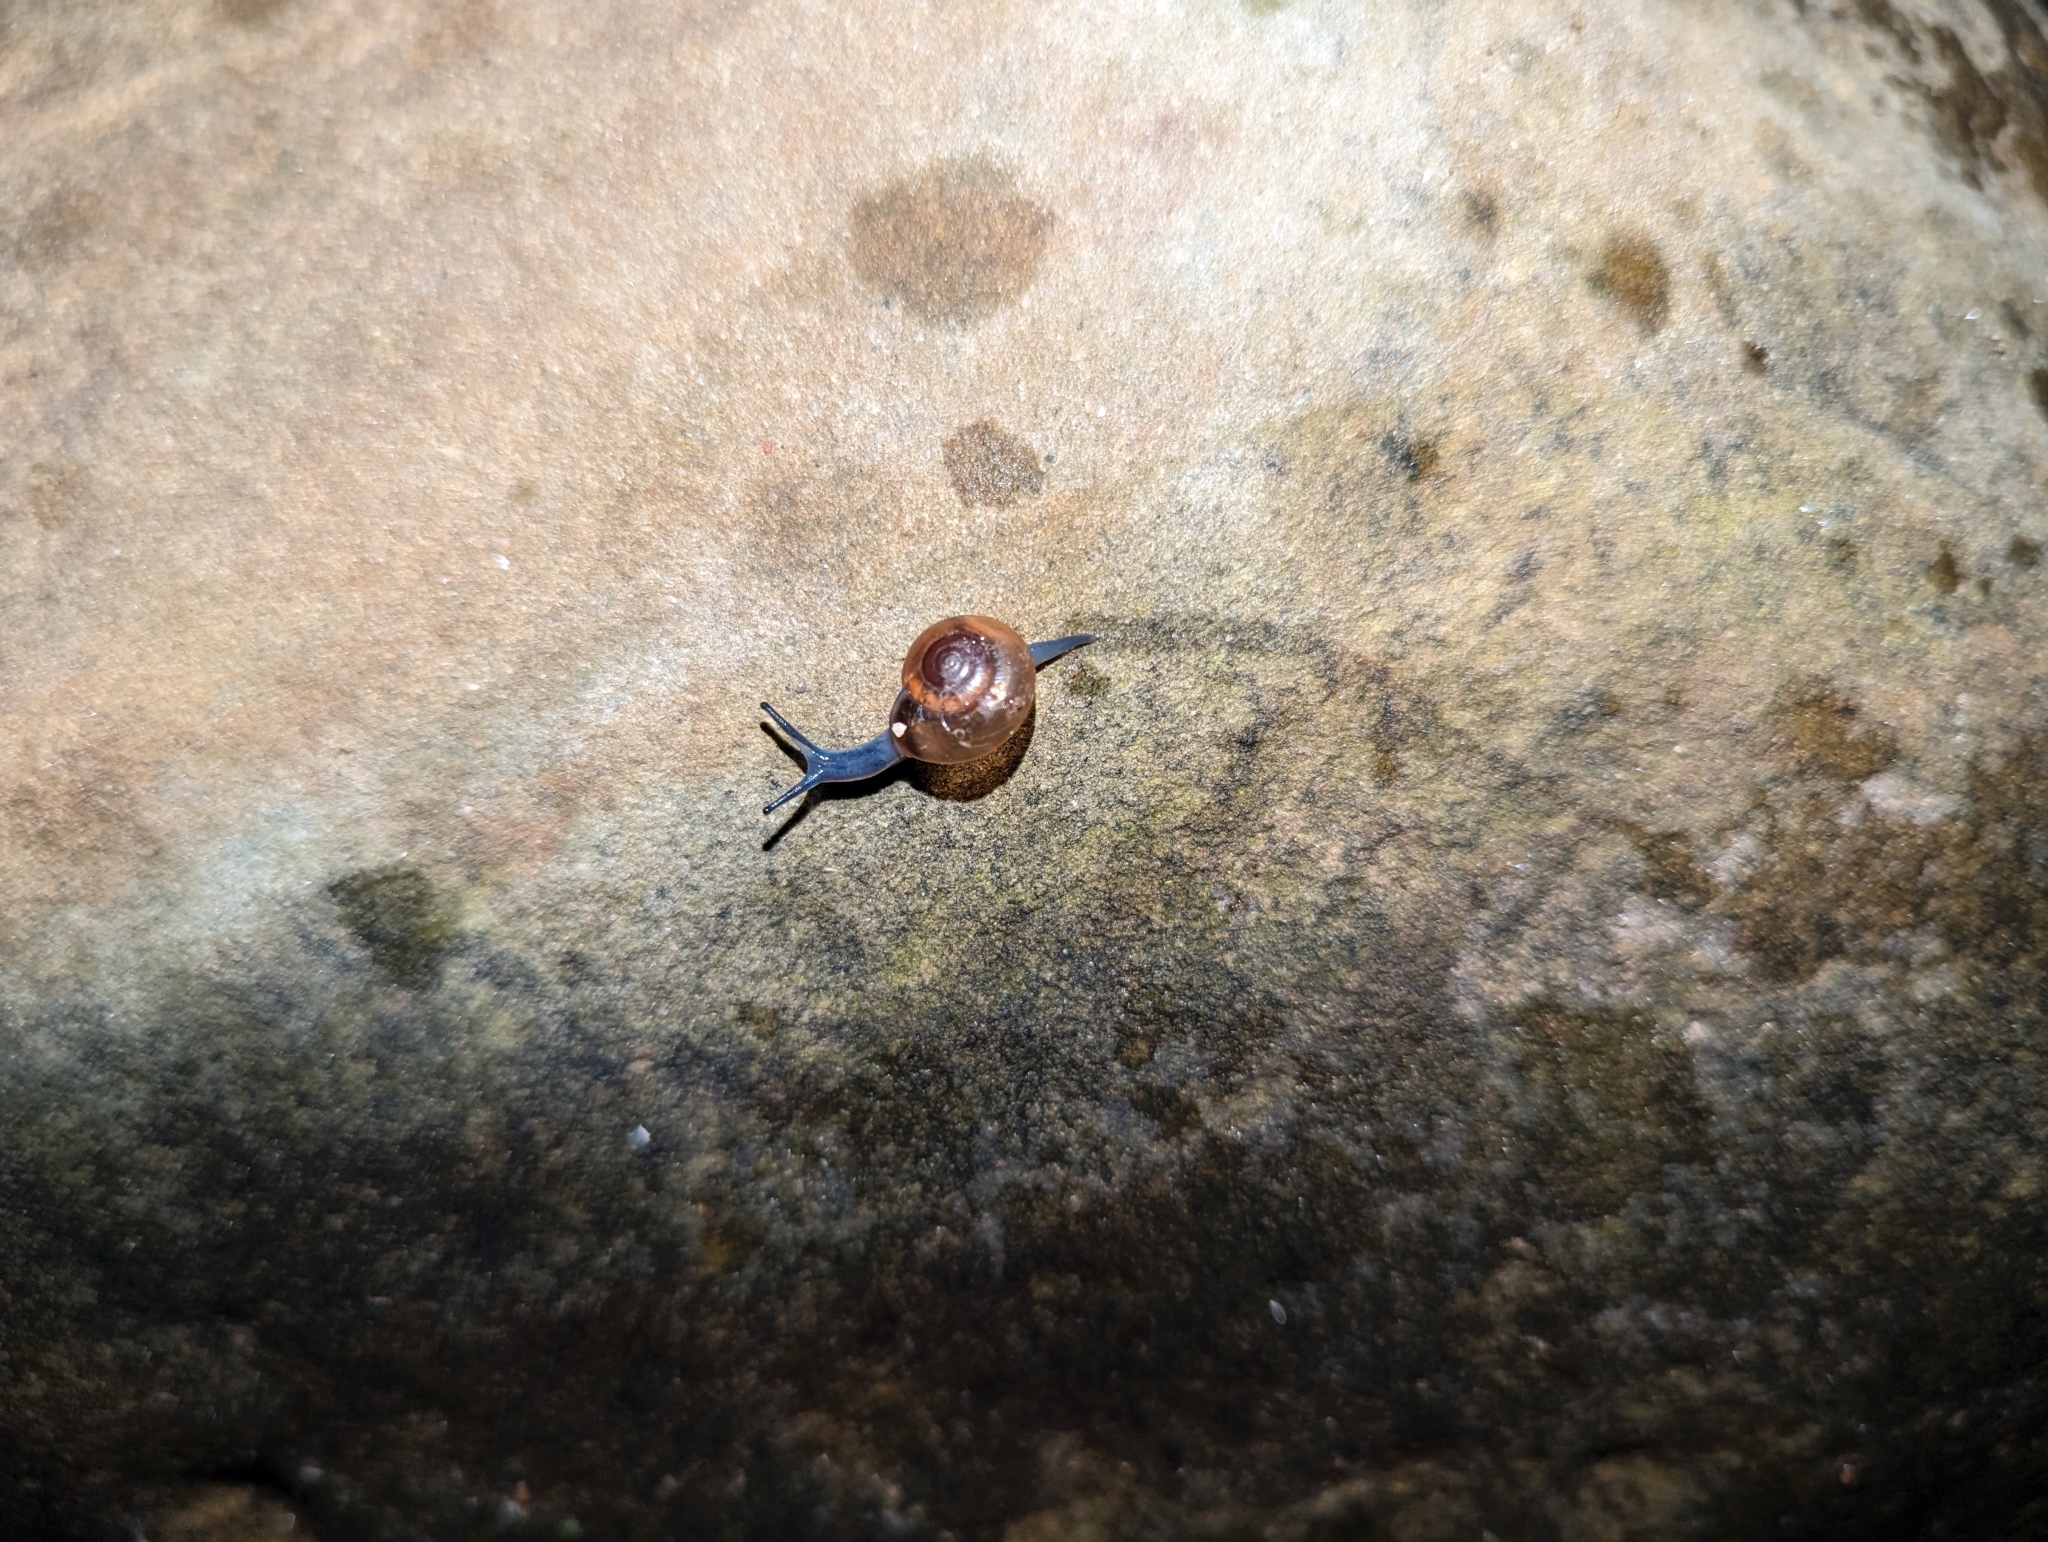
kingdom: Animalia
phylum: Mollusca
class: Gastropoda
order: Stylommatophora
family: Oxychilidae
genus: Oxychilus
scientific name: Oxychilus
